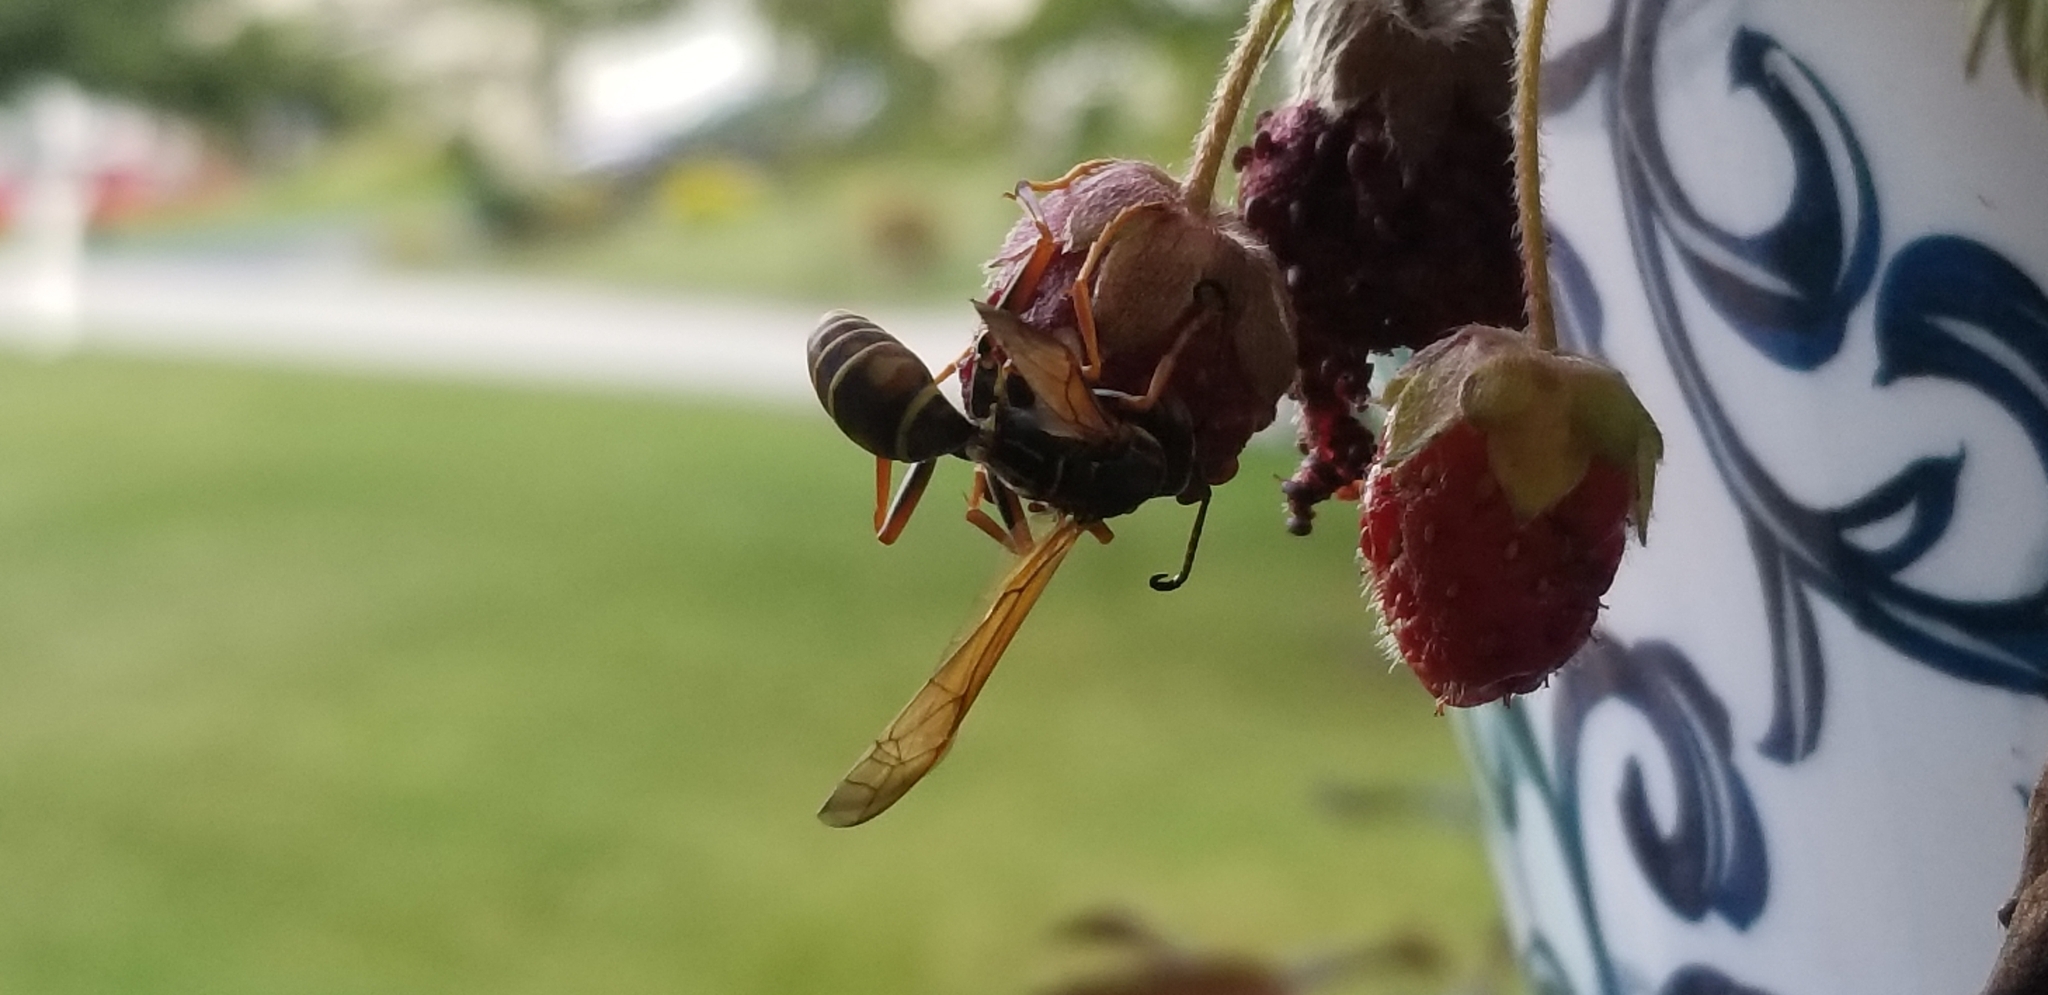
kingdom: Animalia
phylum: Arthropoda
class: Insecta
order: Hymenoptera
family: Eumenidae
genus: Polistes
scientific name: Polistes fuscatus
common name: Dark paper wasp
